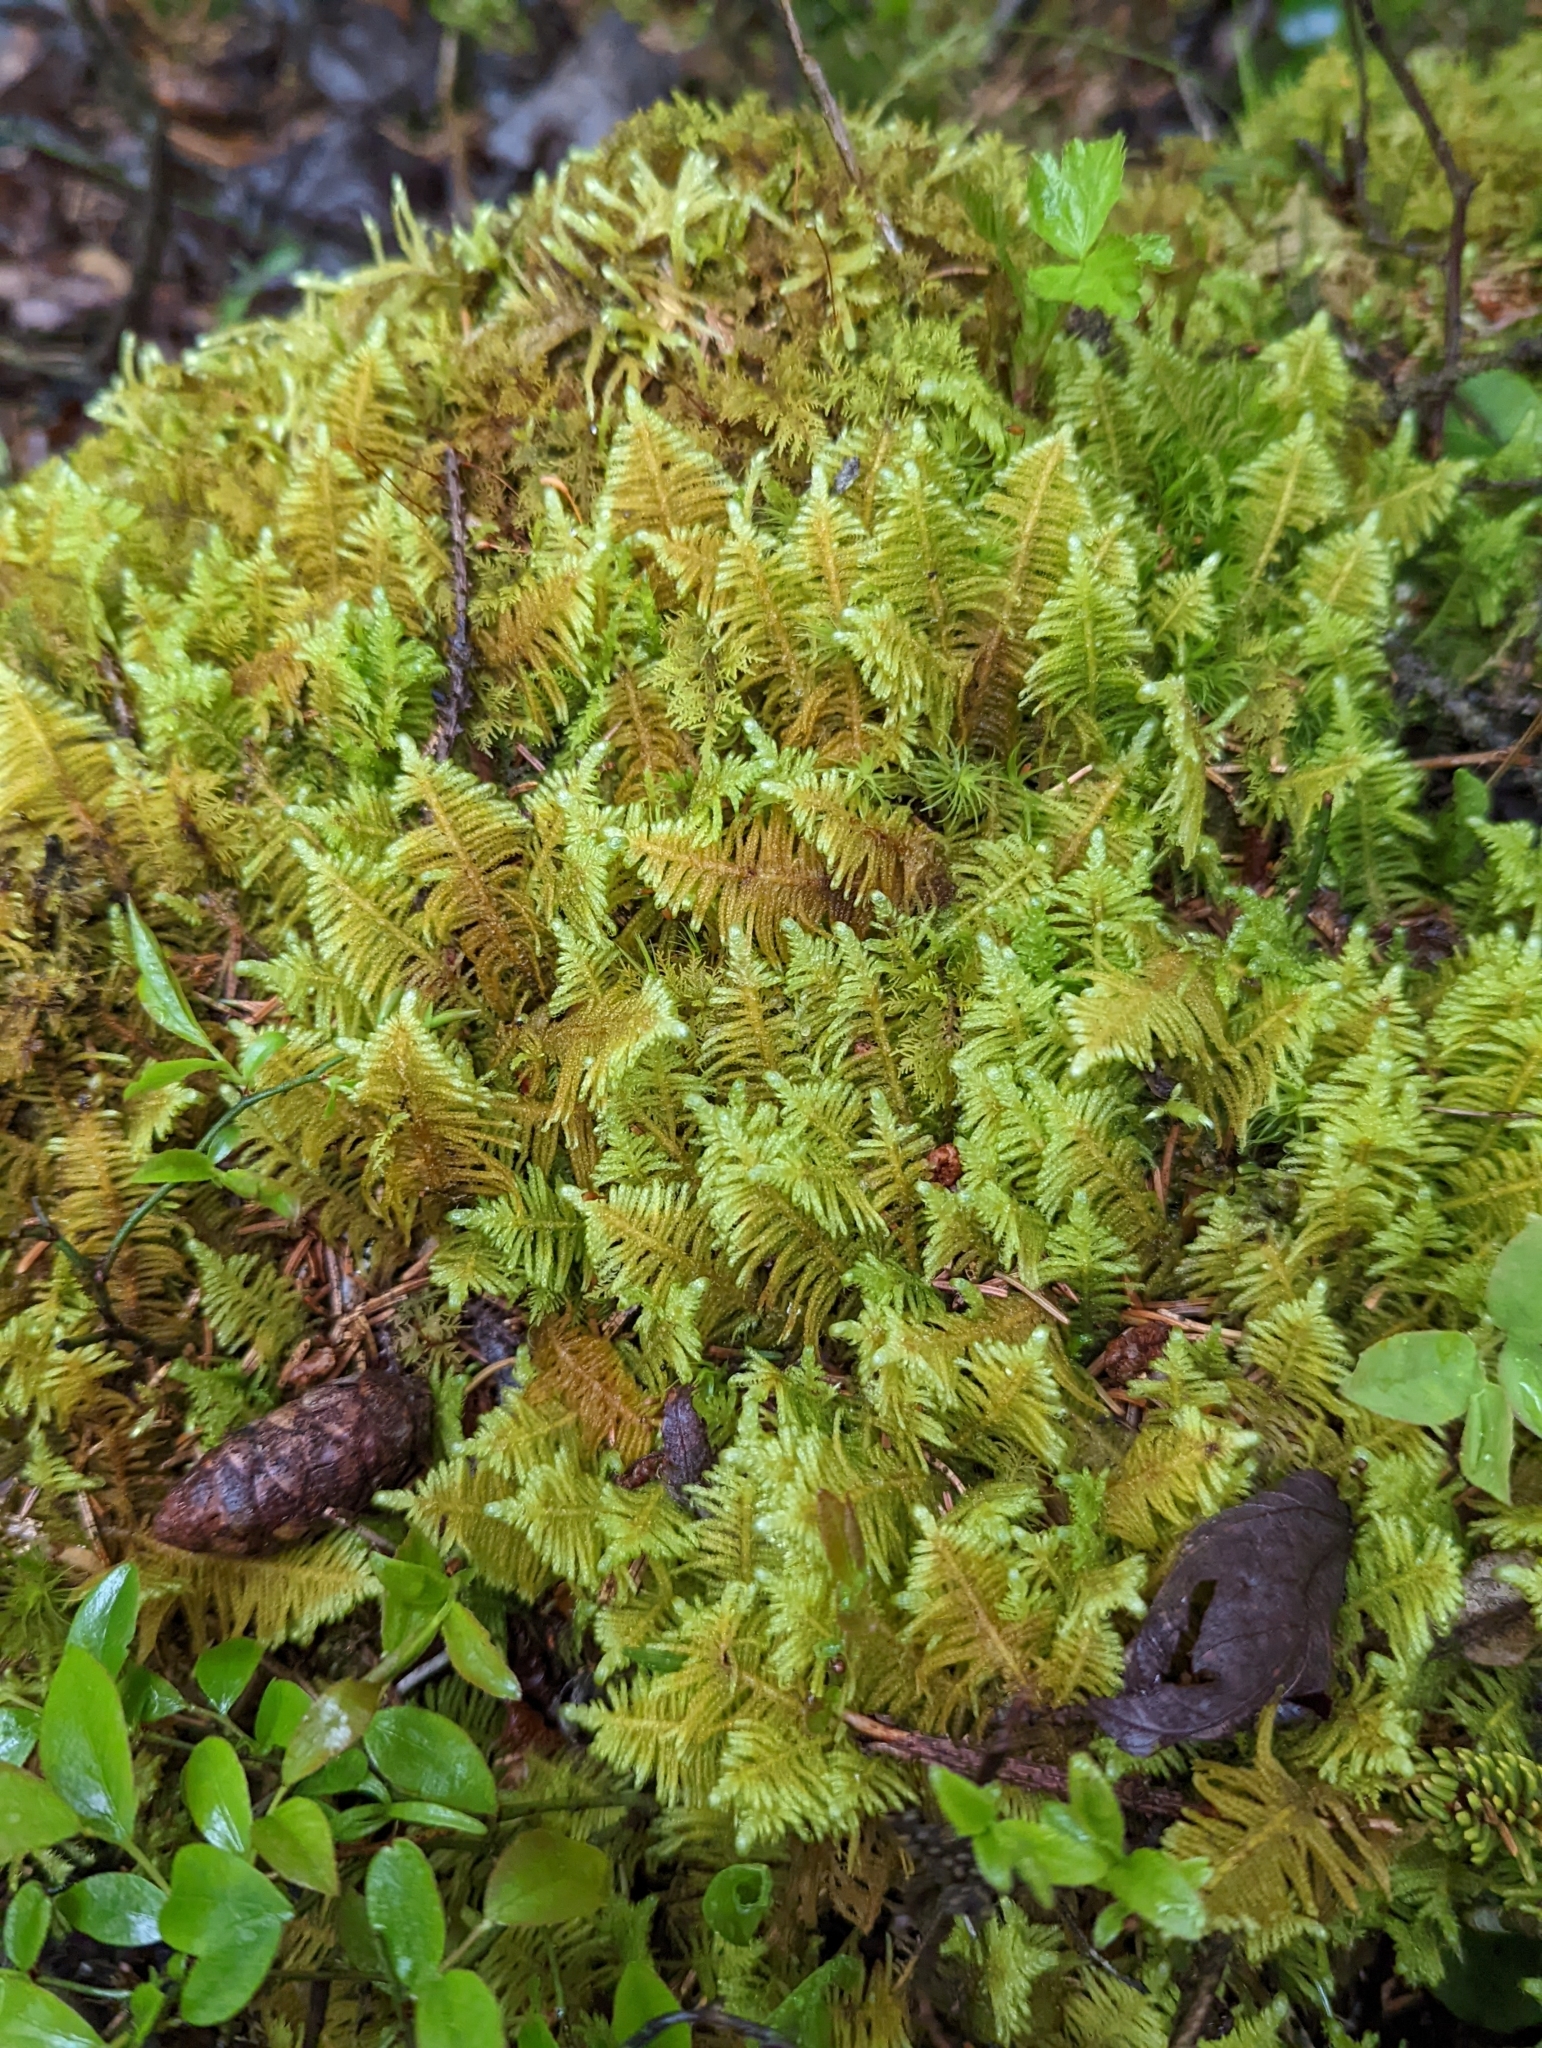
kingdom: Plantae
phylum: Bryophyta
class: Bryopsida
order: Hypnales
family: Pylaisiaceae
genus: Ptilium
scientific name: Ptilium crista-castrensis
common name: Knight's plume moss
